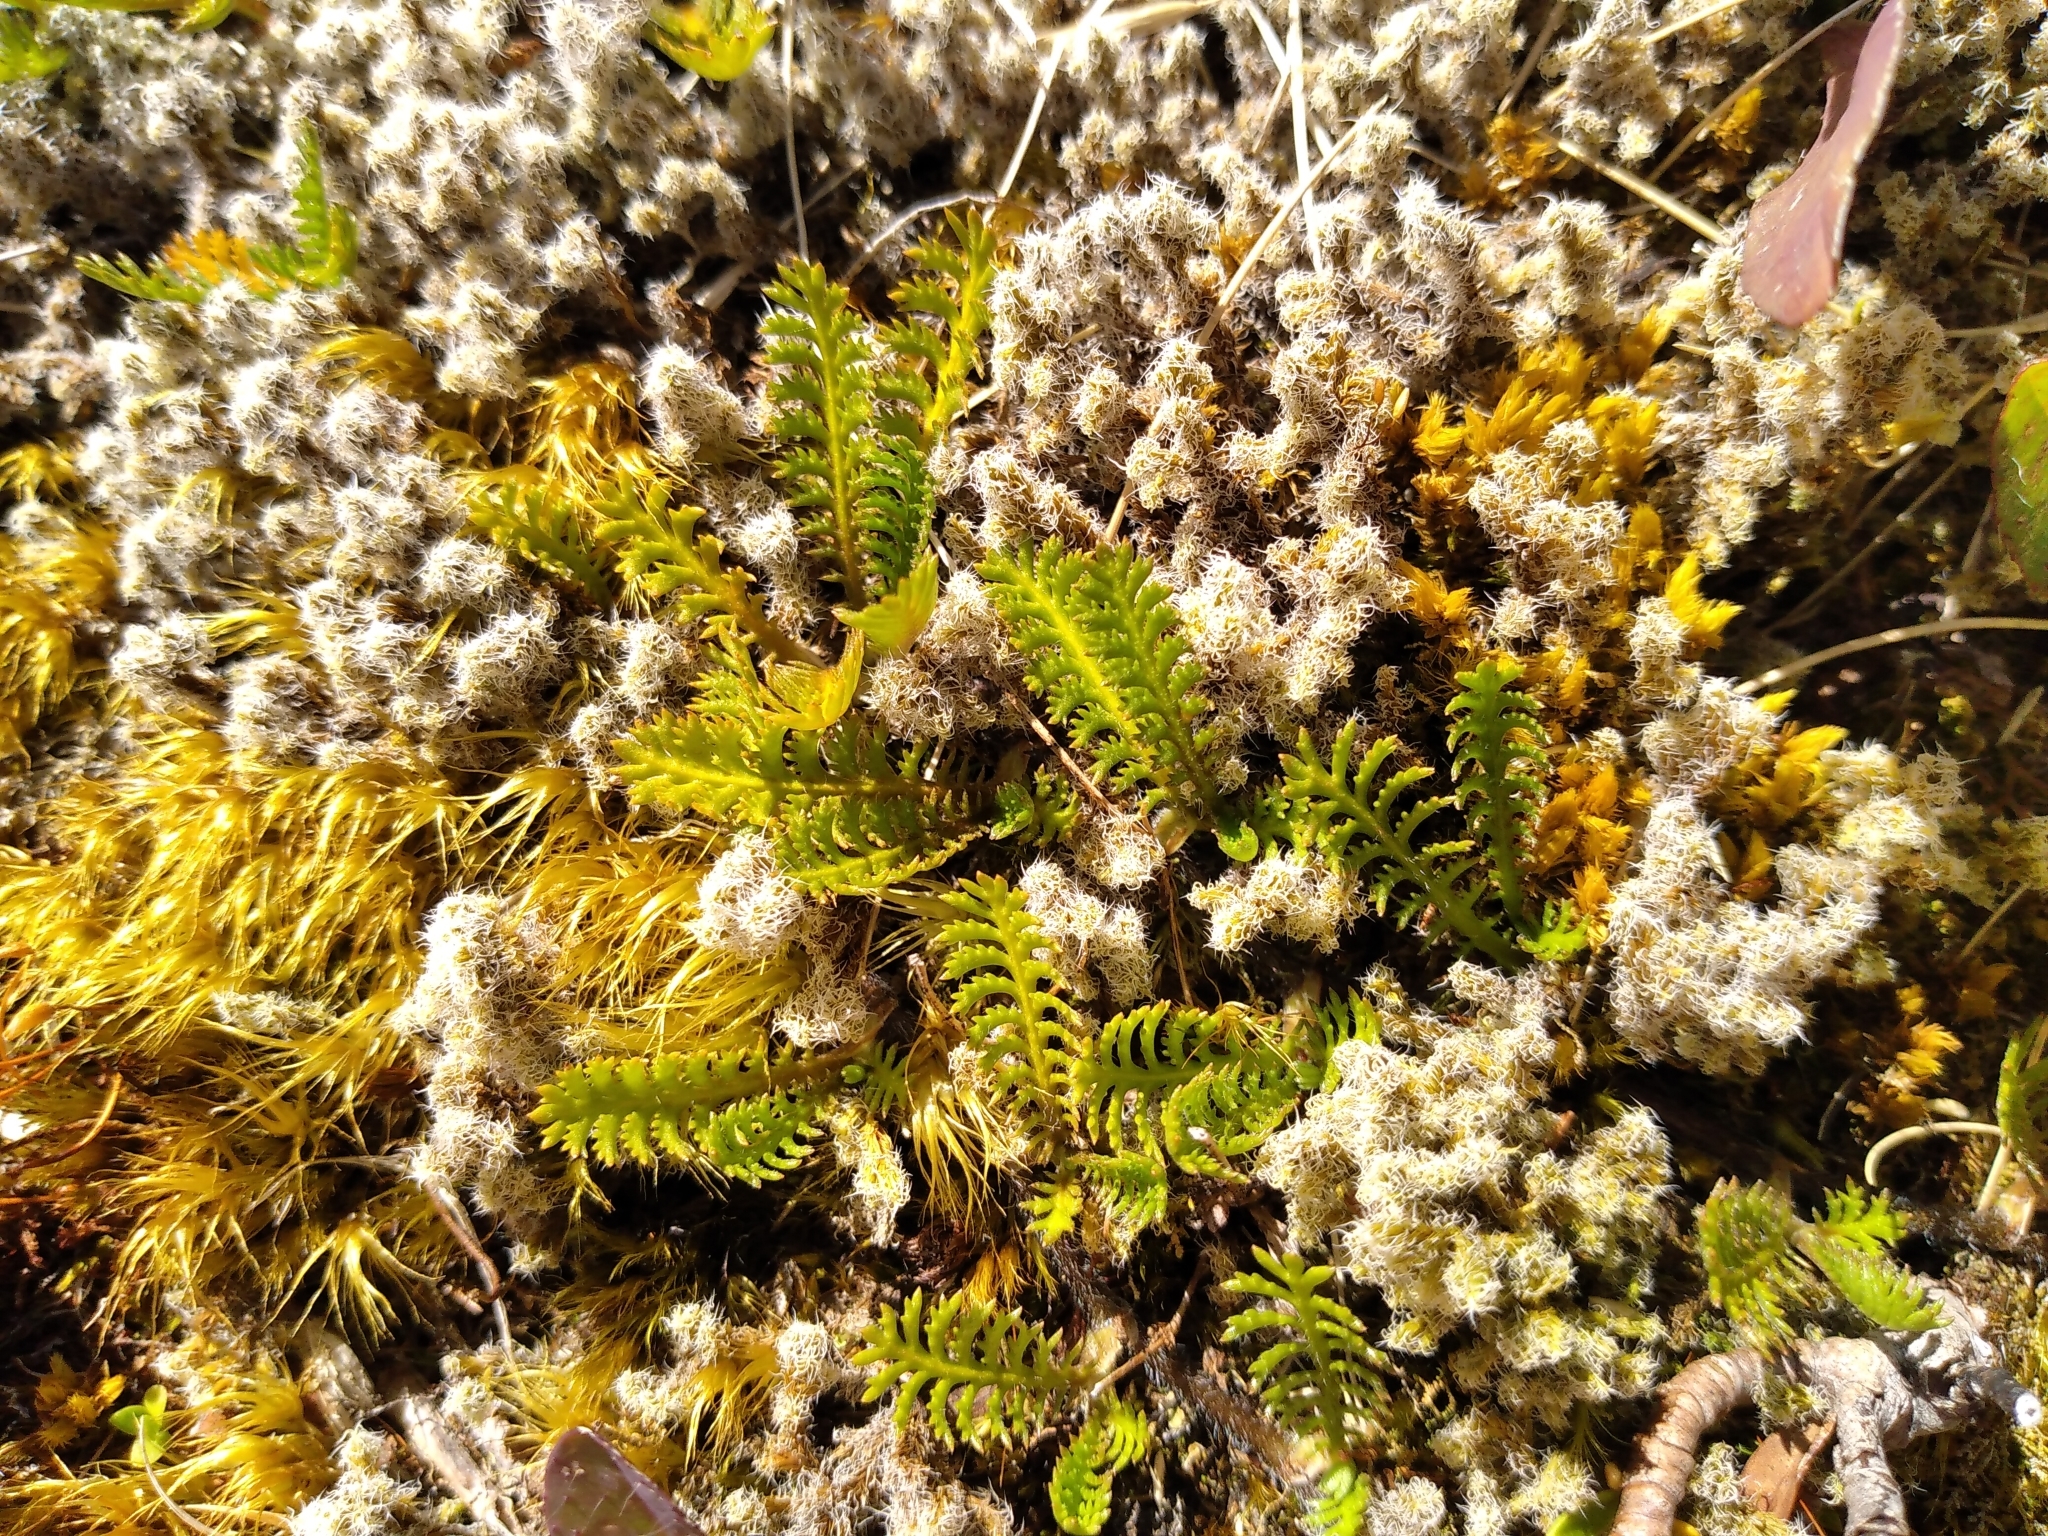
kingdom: Plantae
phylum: Tracheophyta
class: Magnoliopsida
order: Asterales
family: Asteraceae
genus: Leptinella
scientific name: Leptinella squalida
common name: New zealand brass-buttons
